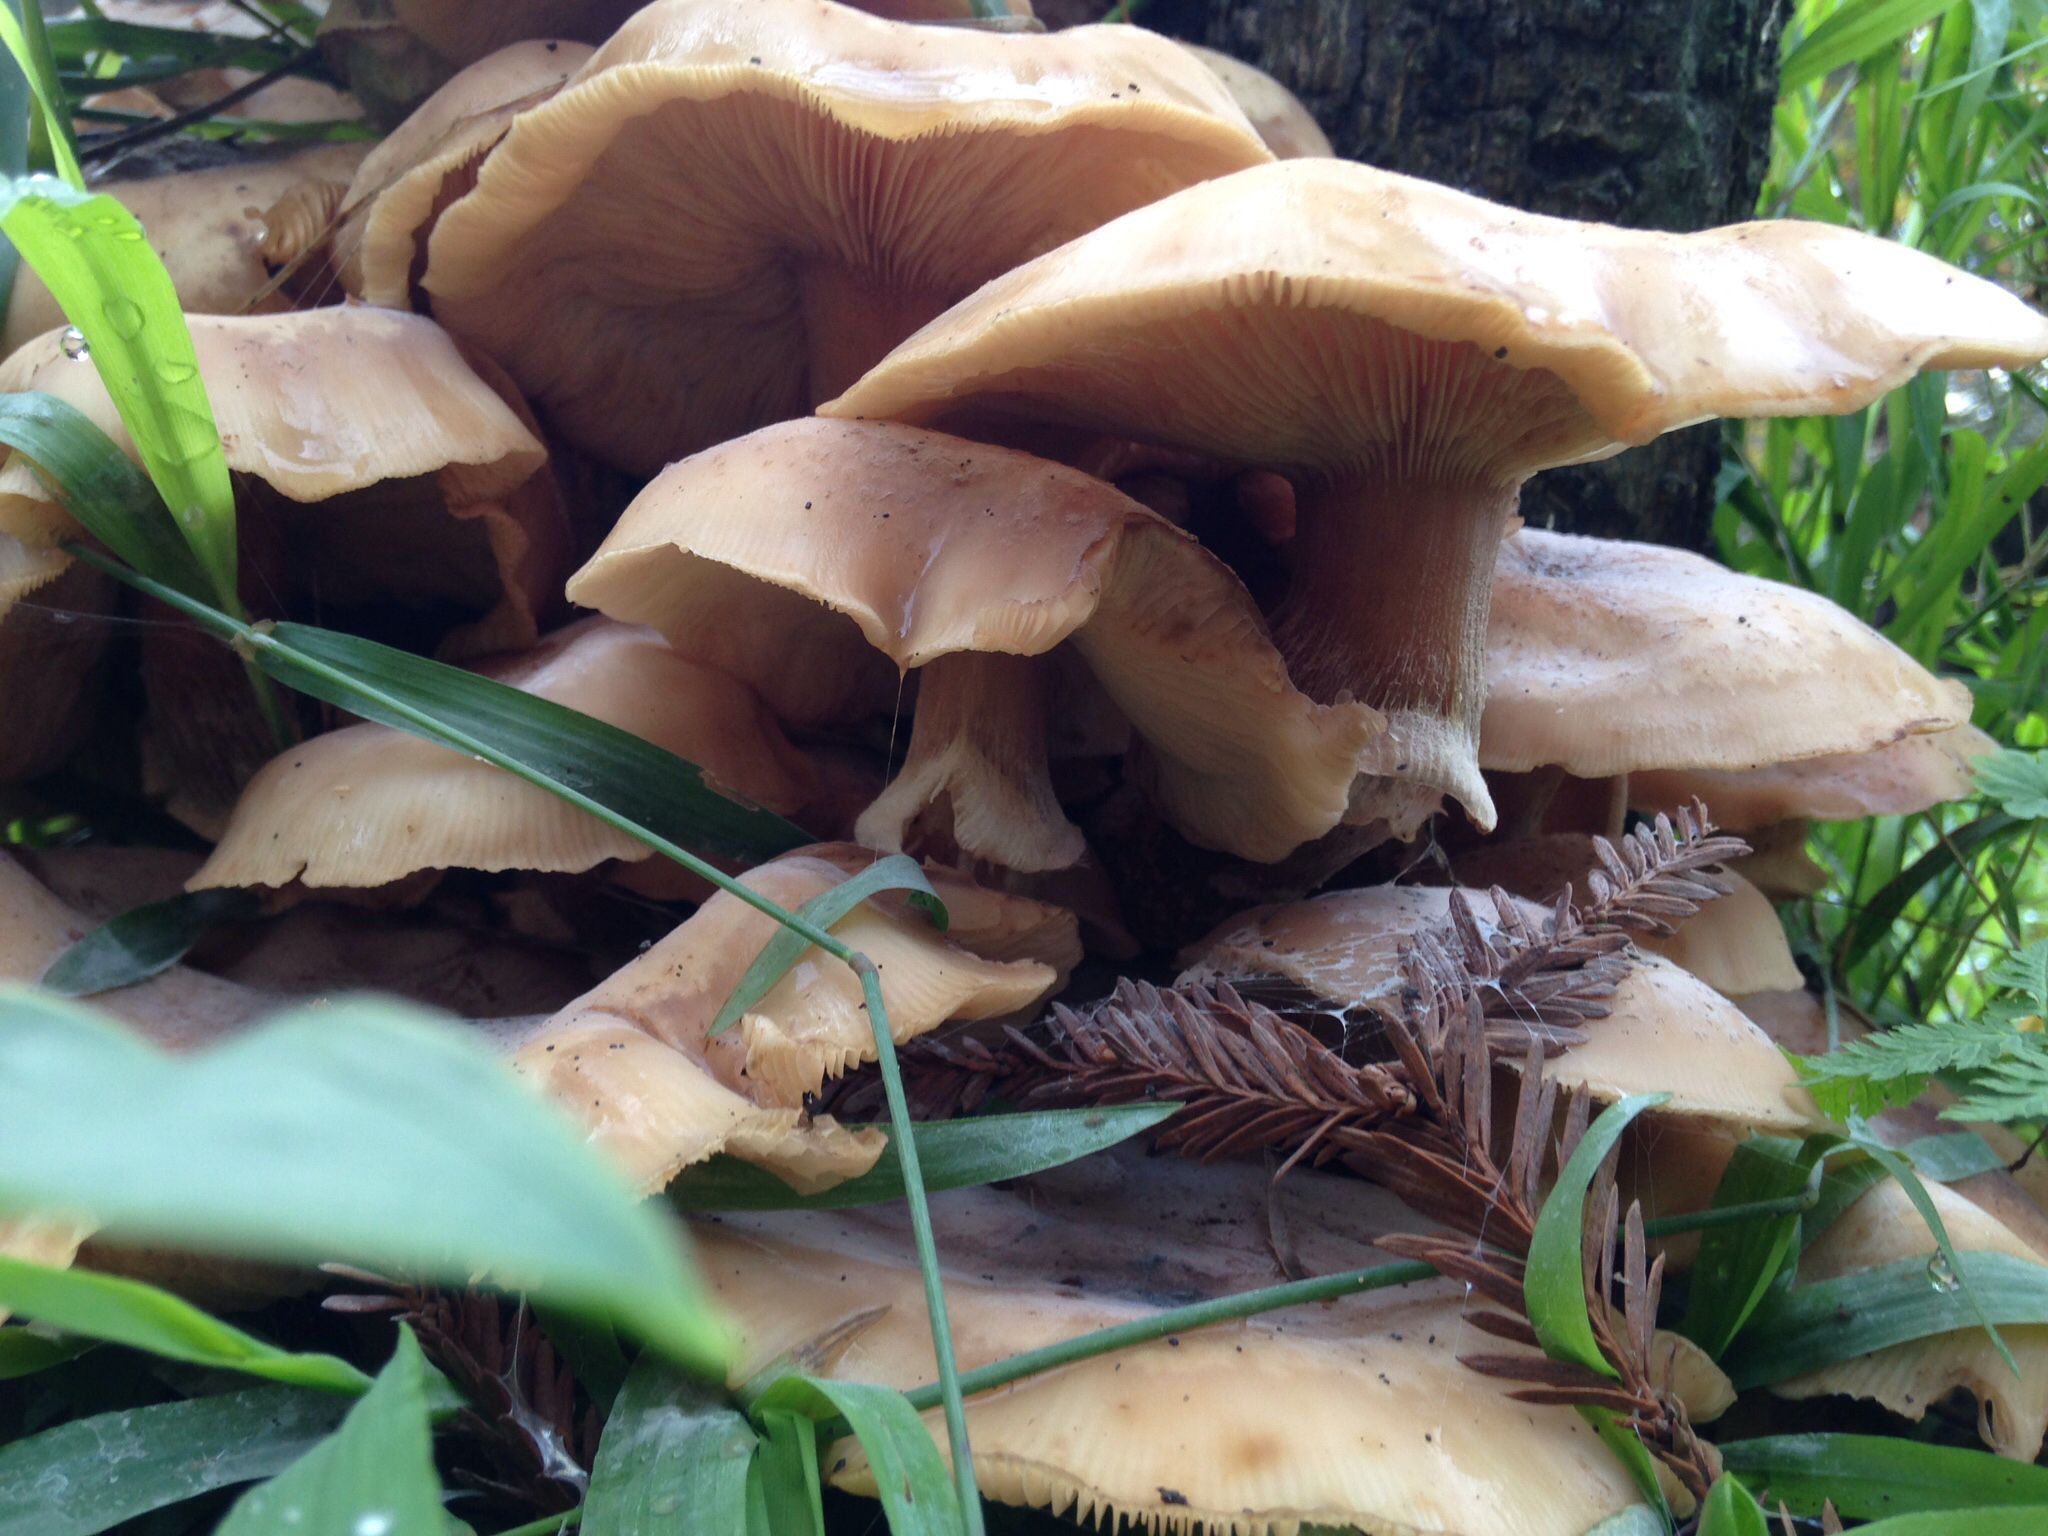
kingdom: Fungi
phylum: Basidiomycota
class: Agaricomycetes
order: Agaricales
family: Physalacriaceae
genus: Armillaria
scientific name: Armillaria mellea
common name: Honey fungus
